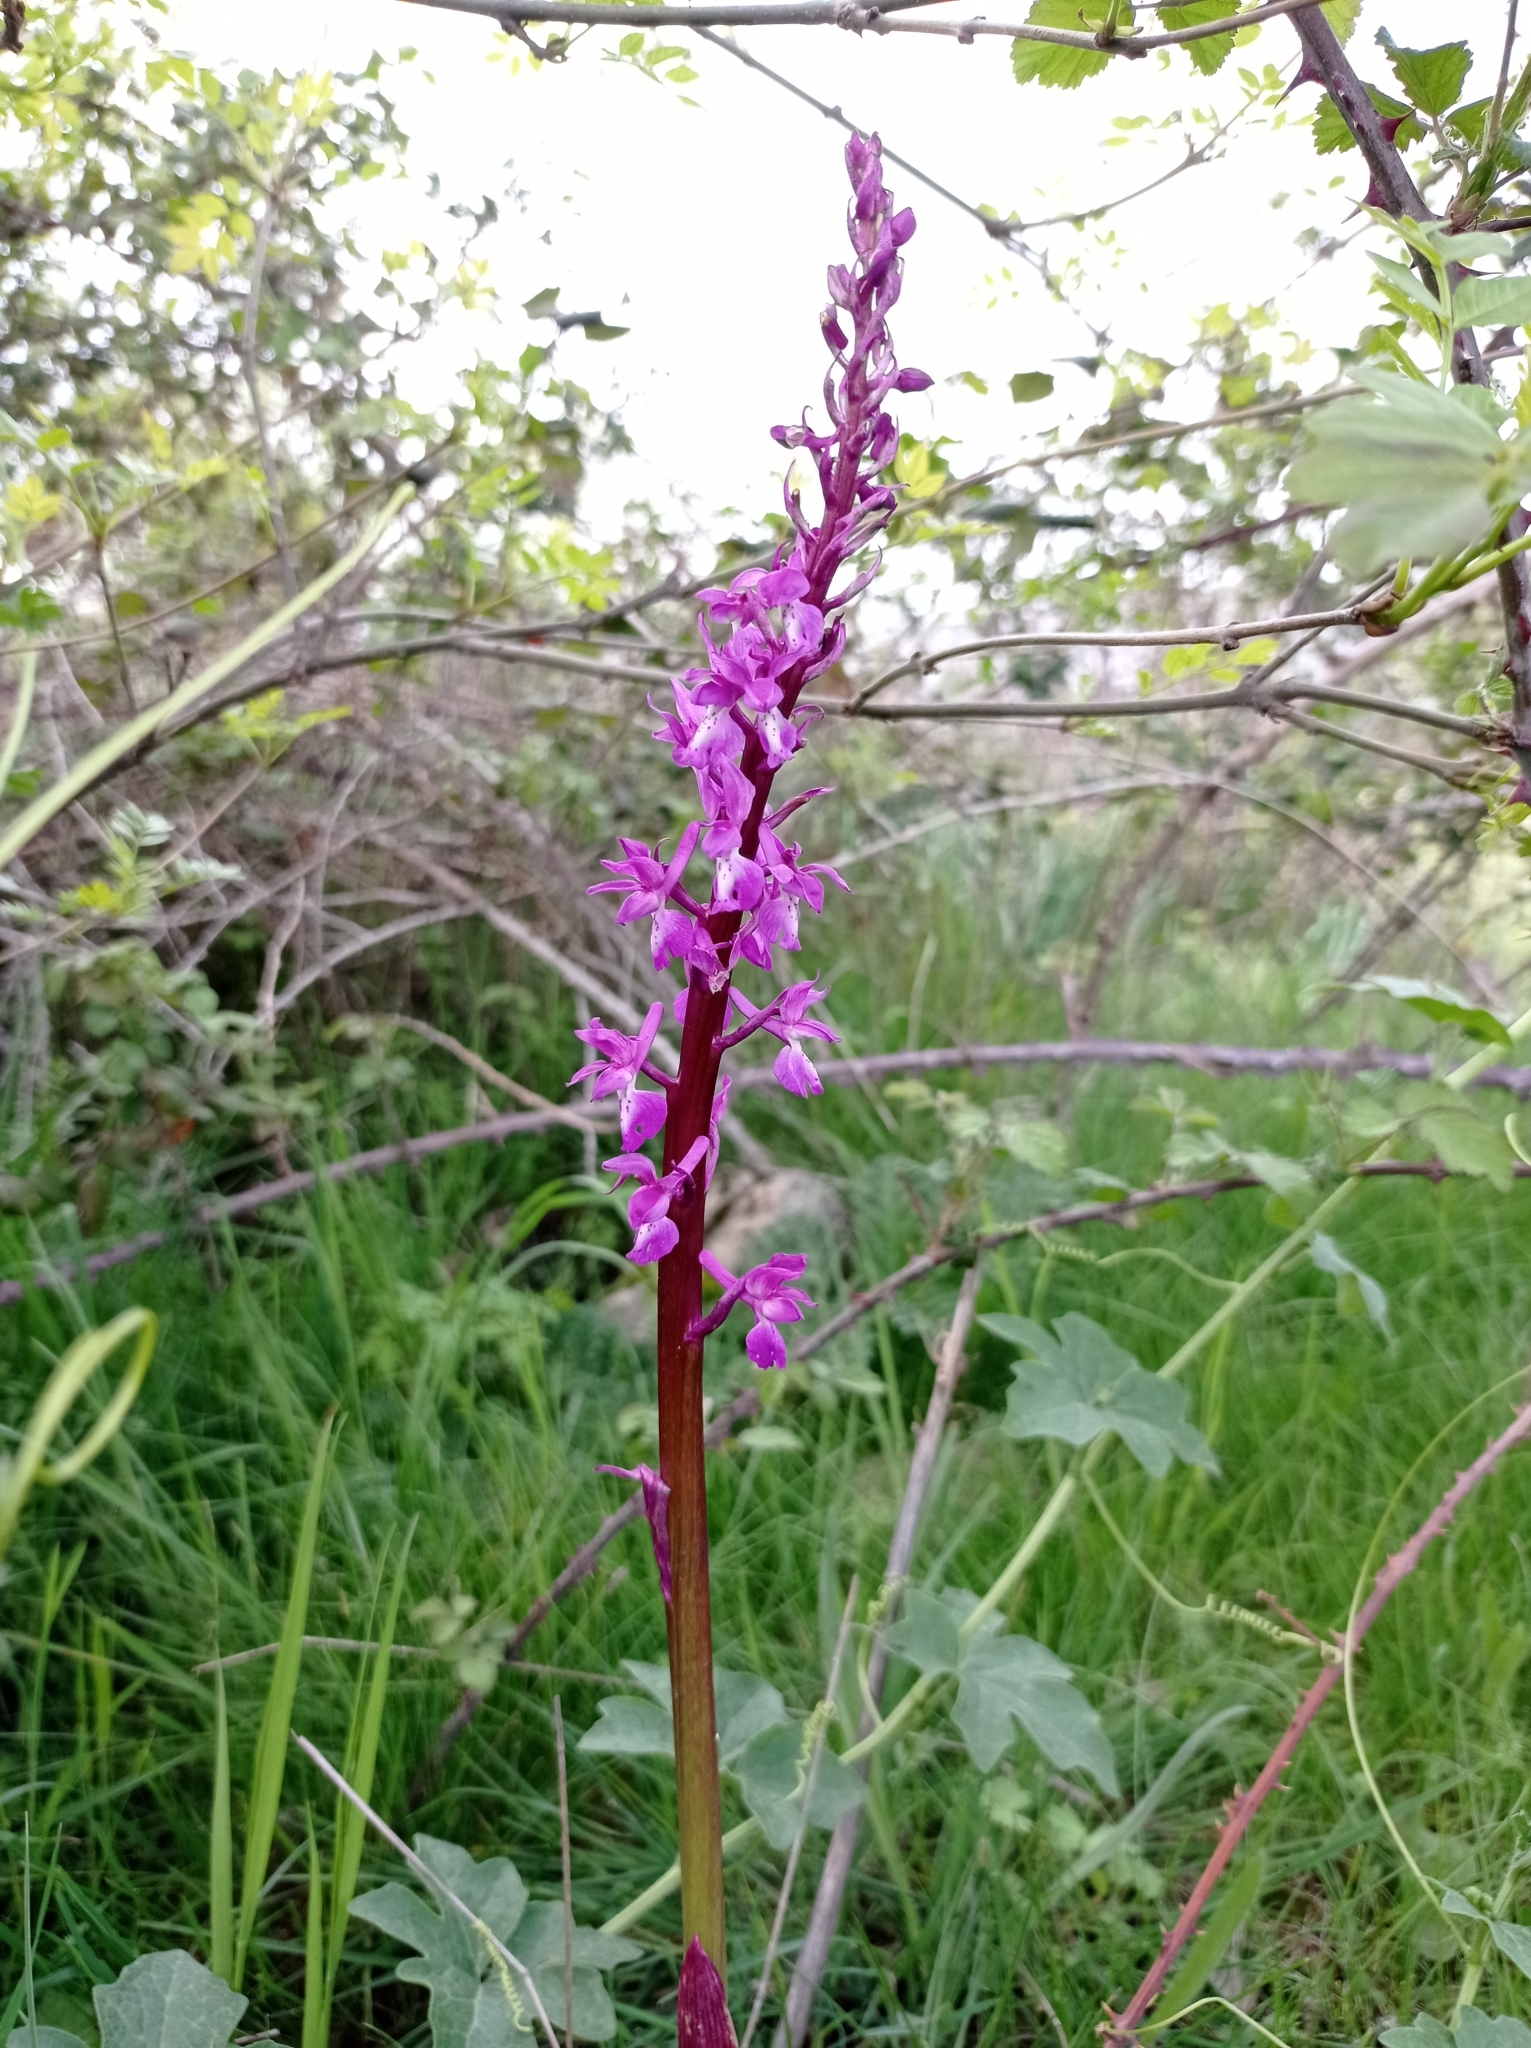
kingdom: Plantae
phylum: Tracheophyta
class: Liliopsida
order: Asparagales
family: Orchidaceae
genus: Orchis
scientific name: Orchis mascula
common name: Early-purple orchid
